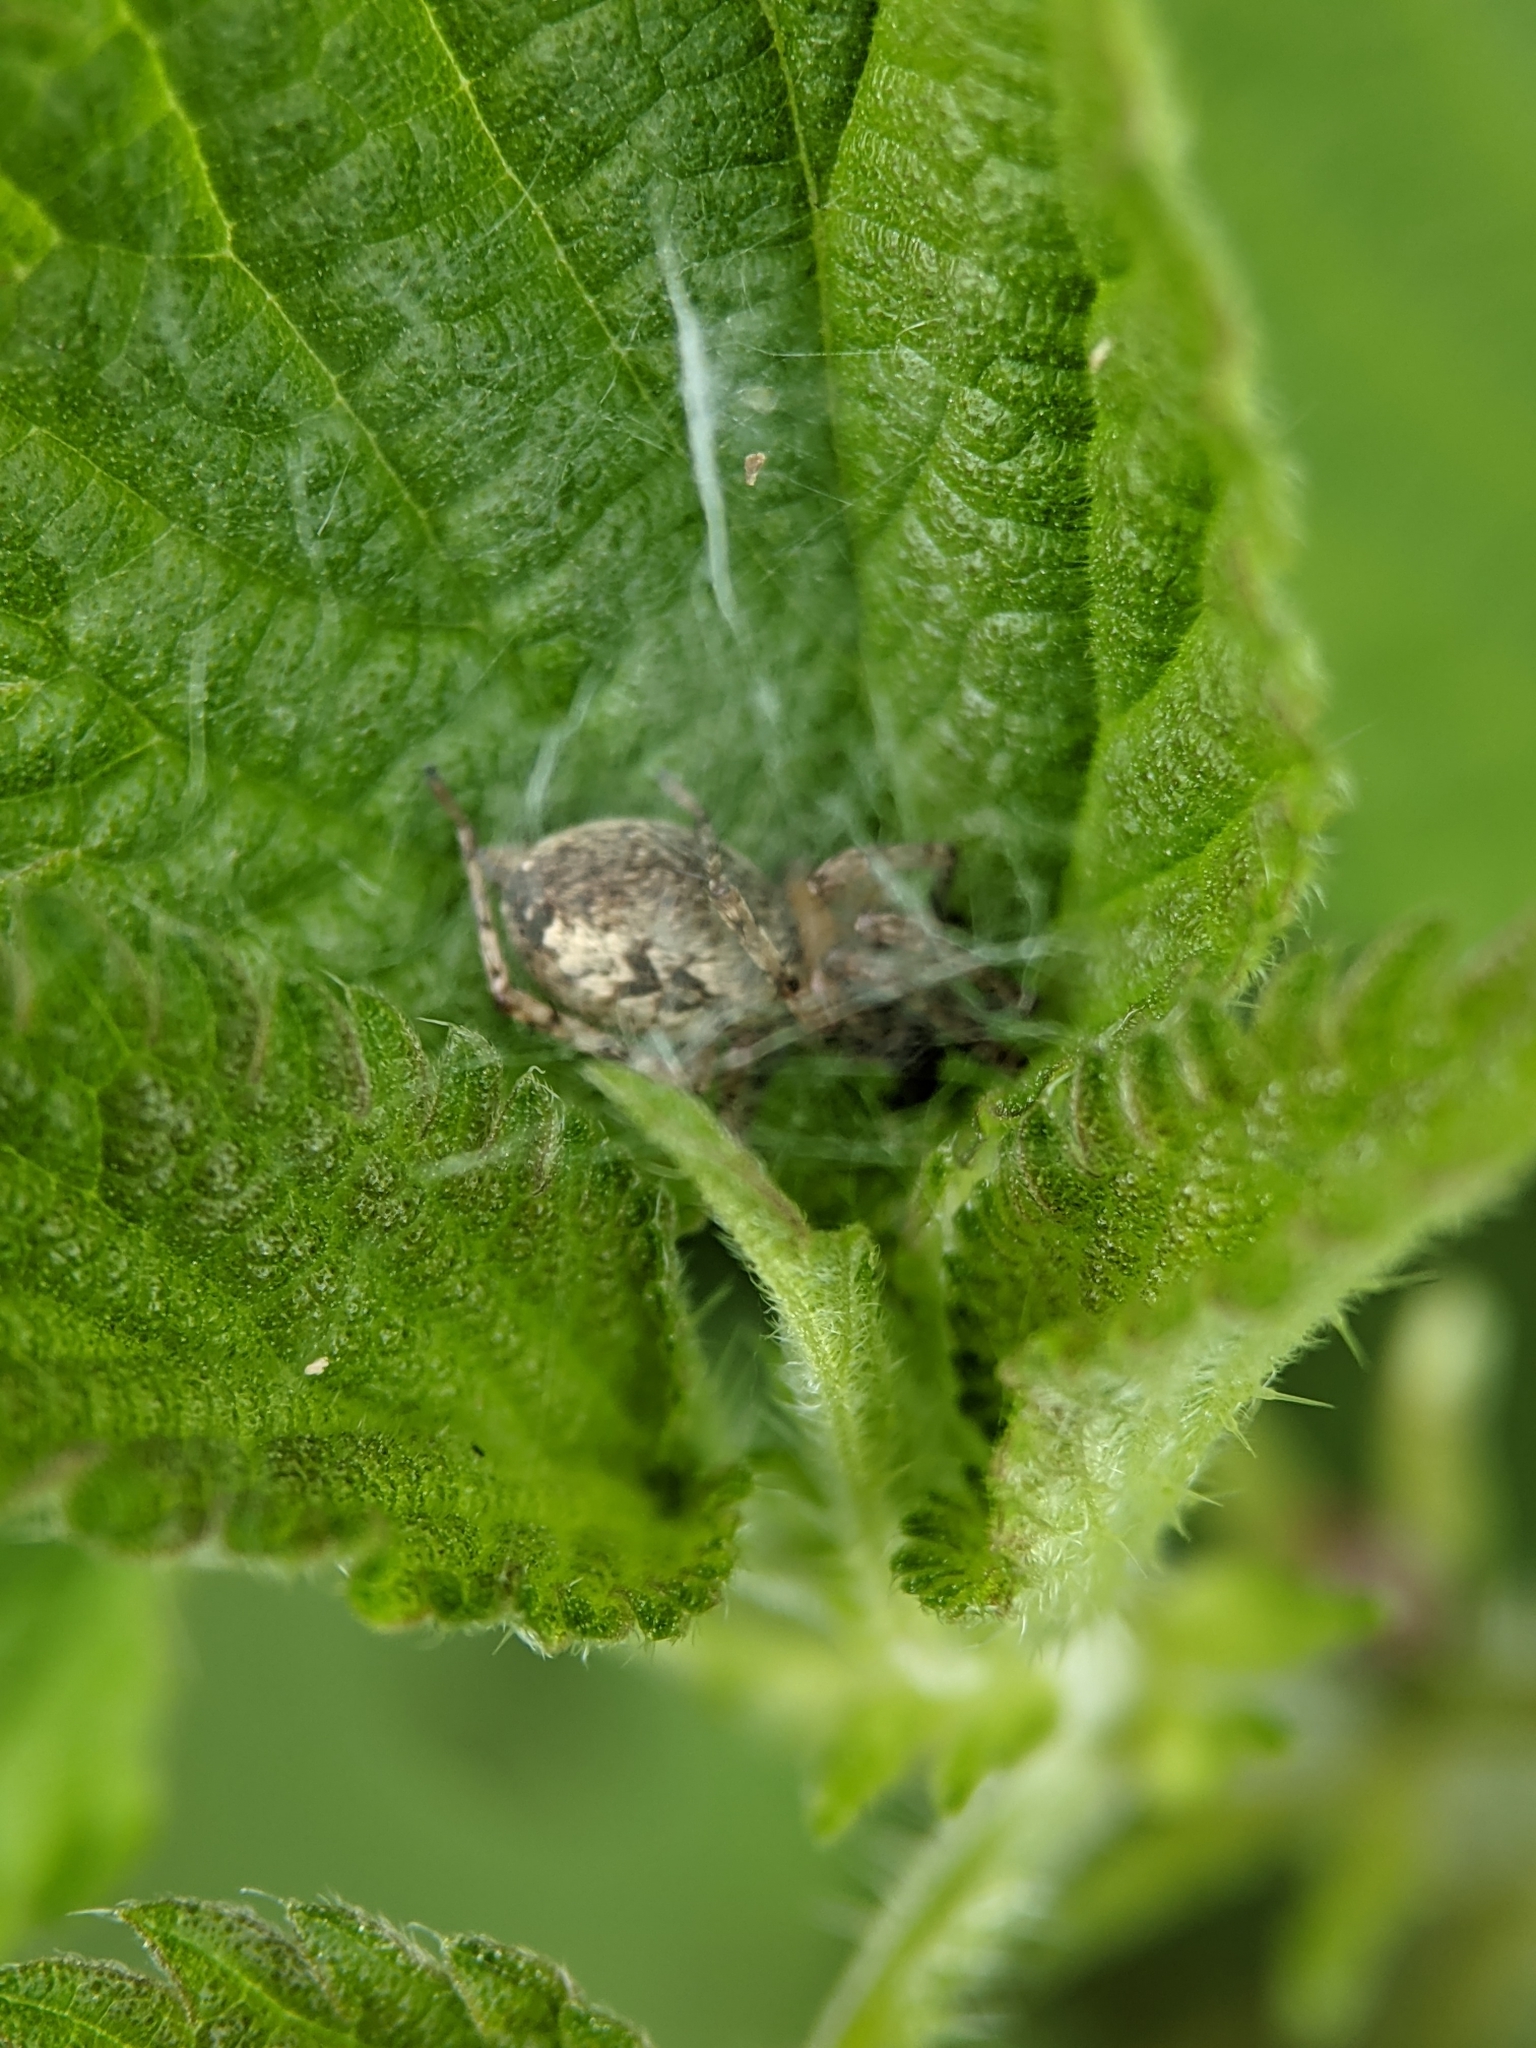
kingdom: Animalia
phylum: Arthropoda
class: Arachnida
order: Araneae
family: Anyphaenidae
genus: Anyphaena
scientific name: Anyphaena accentuata
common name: Buzzing spider
